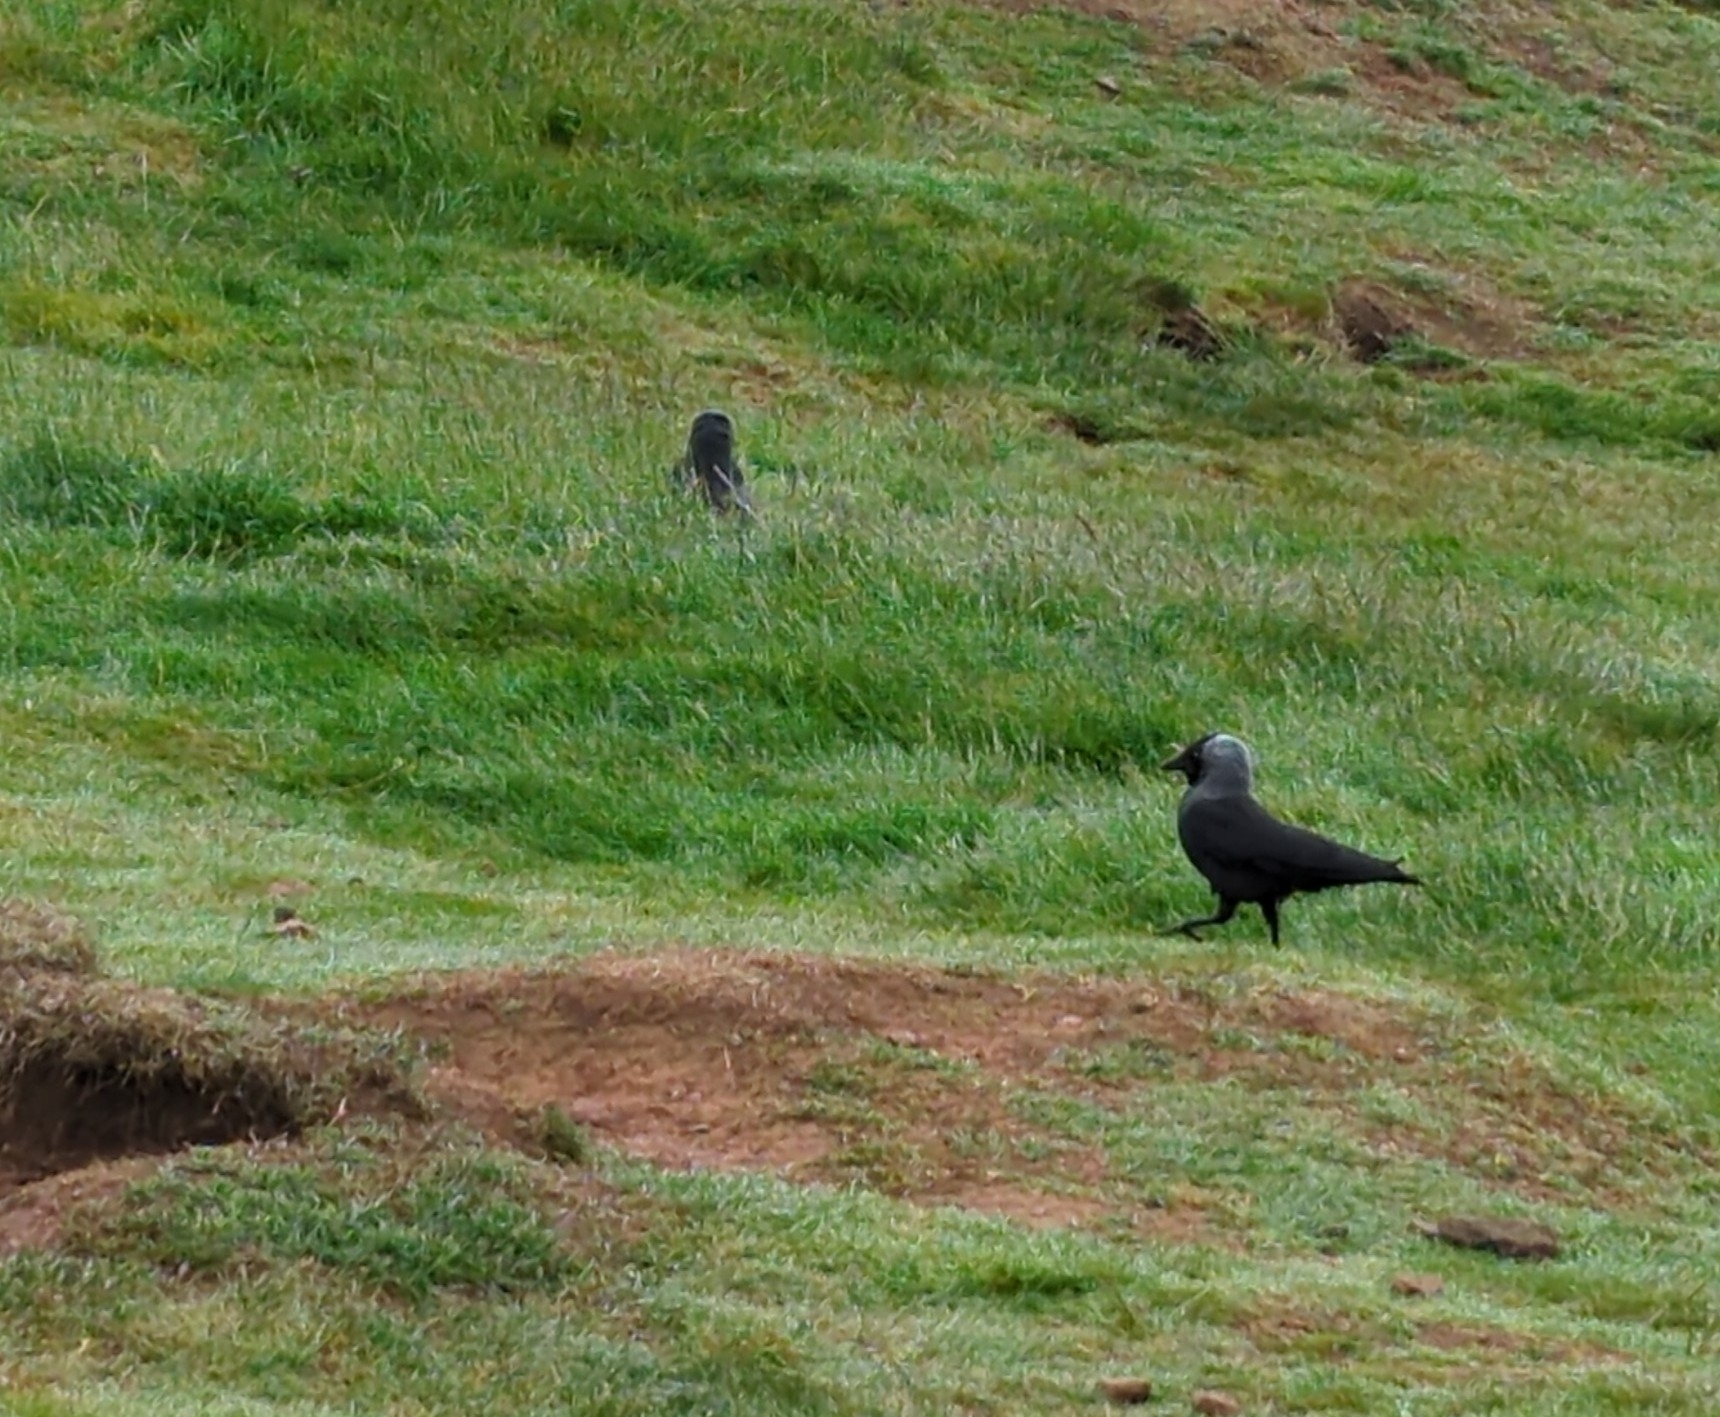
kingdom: Animalia
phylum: Chordata
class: Aves
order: Passeriformes
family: Corvidae
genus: Coloeus
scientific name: Coloeus monedula
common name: Western jackdaw
